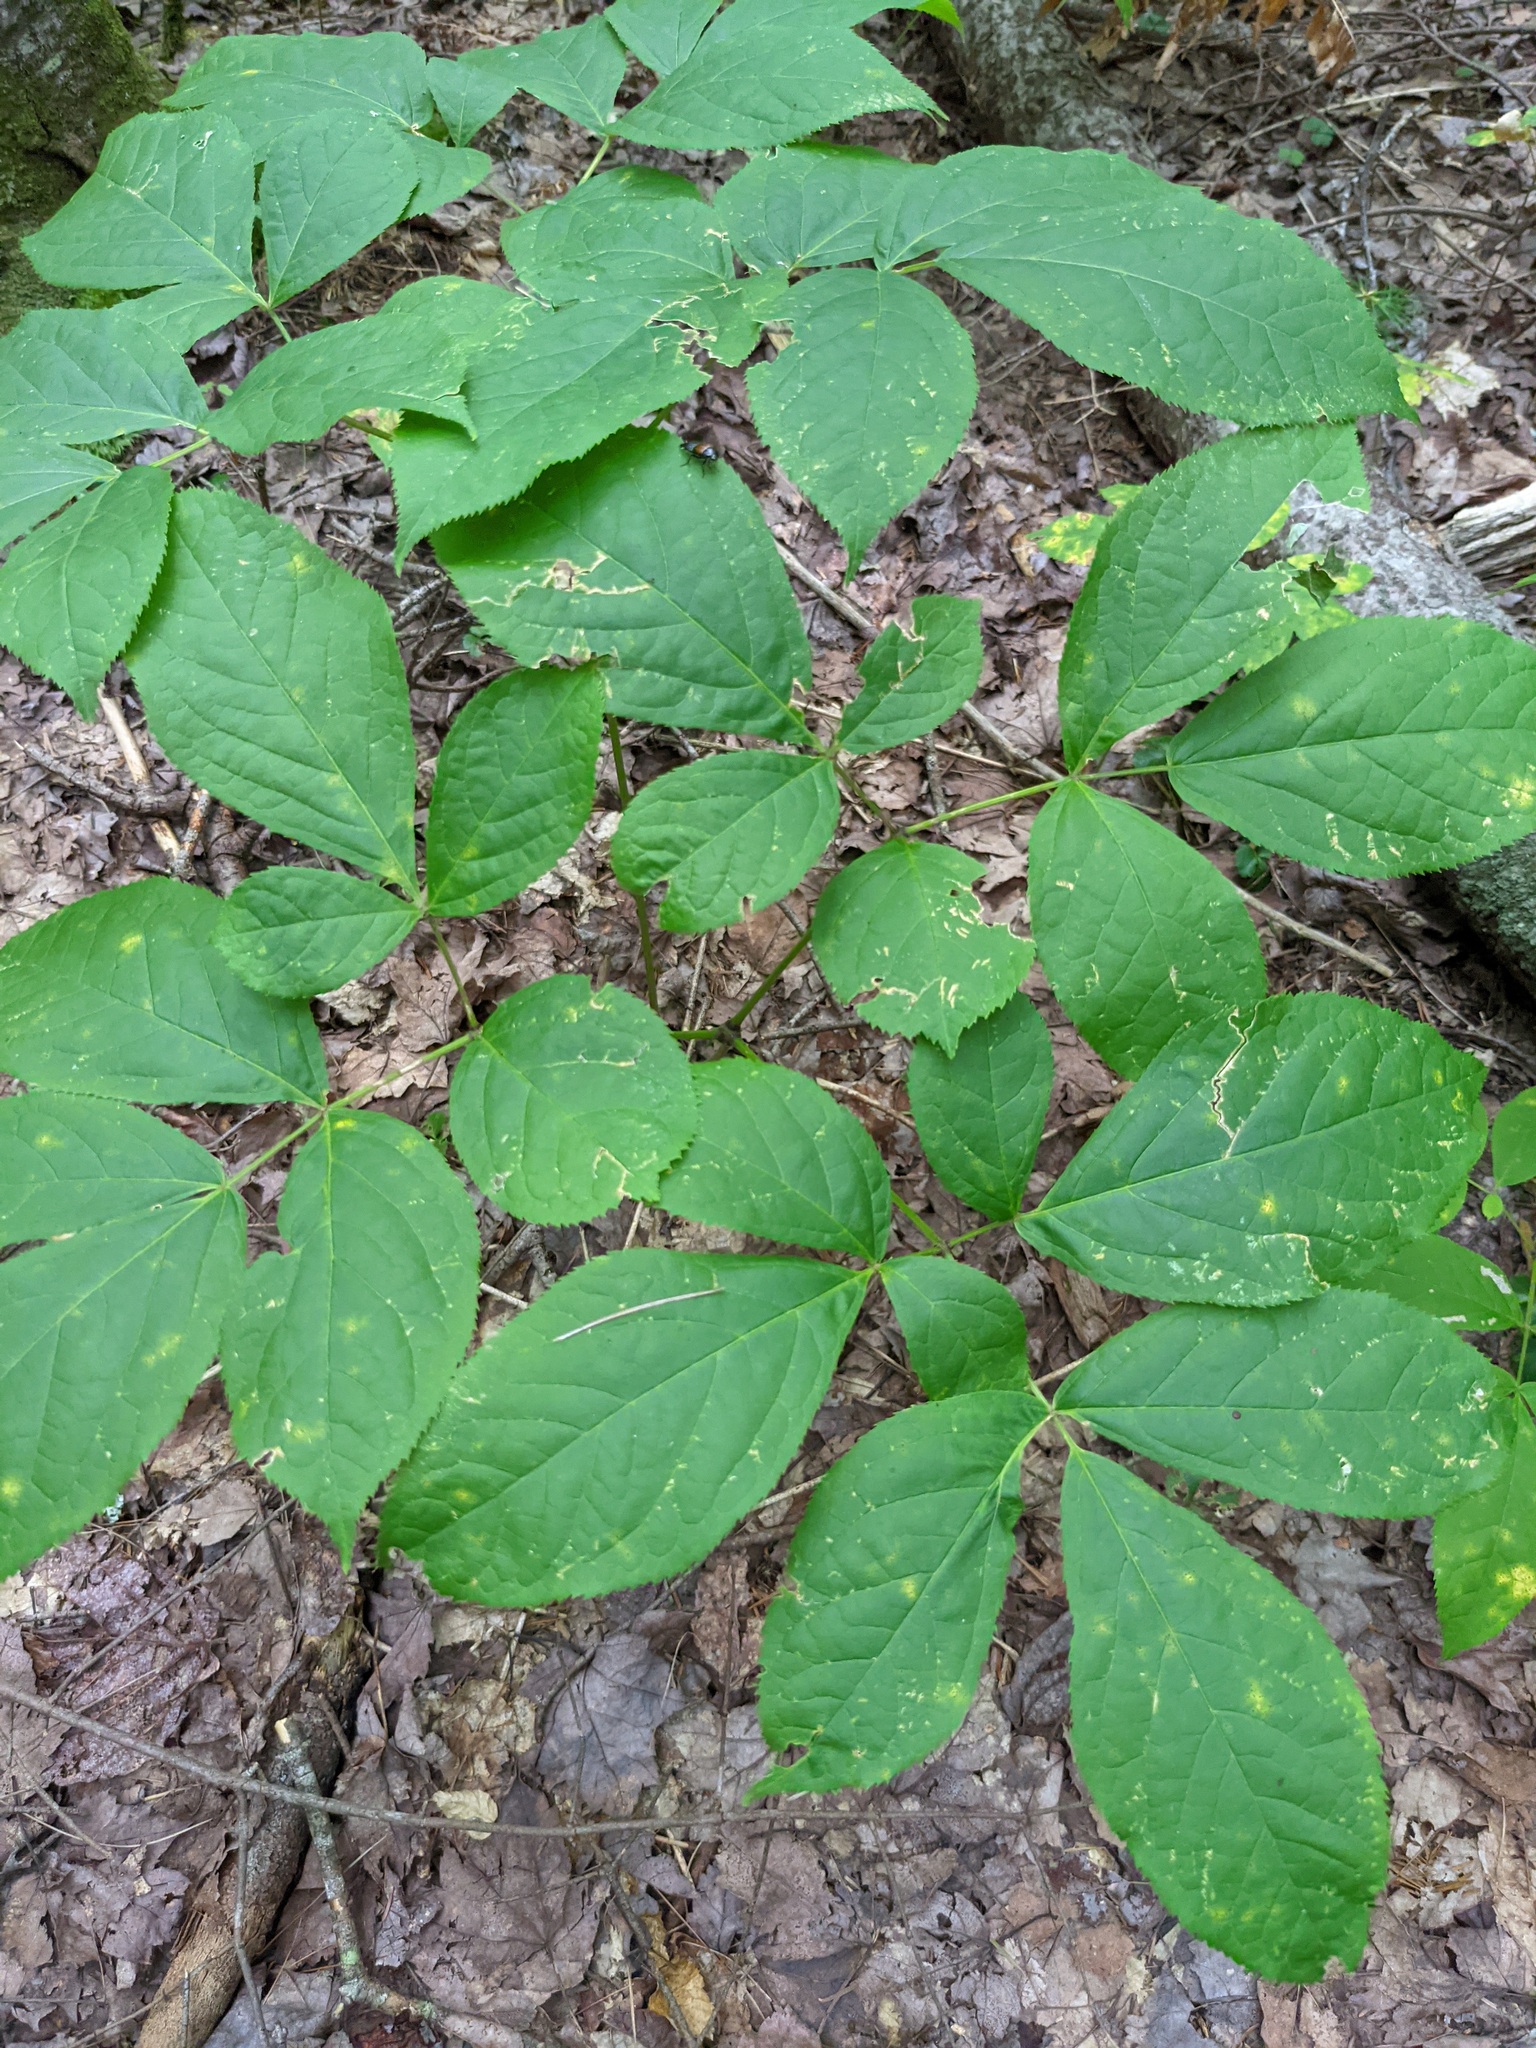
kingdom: Plantae
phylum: Tracheophyta
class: Magnoliopsida
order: Apiales
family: Araliaceae
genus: Aralia
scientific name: Aralia nudicaulis
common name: Wild sarsaparilla
